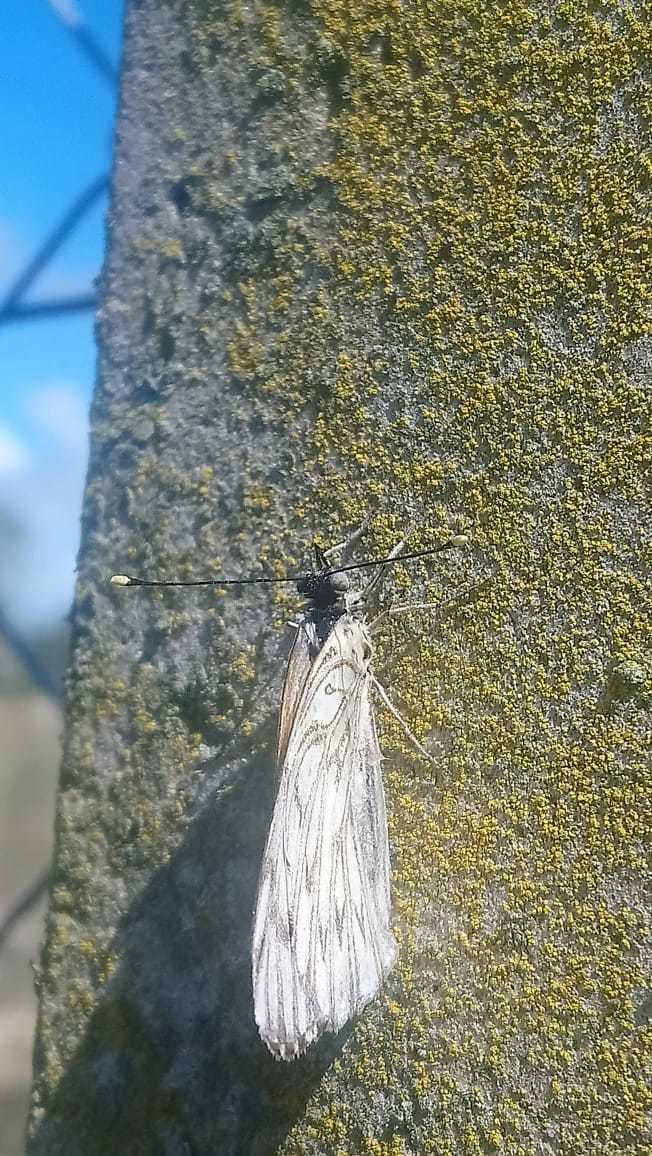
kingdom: Animalia
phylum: Arthropoda
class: Insecta
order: Lepidoptera
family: Pieridae
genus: Tatochila
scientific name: Tatochila autodice
